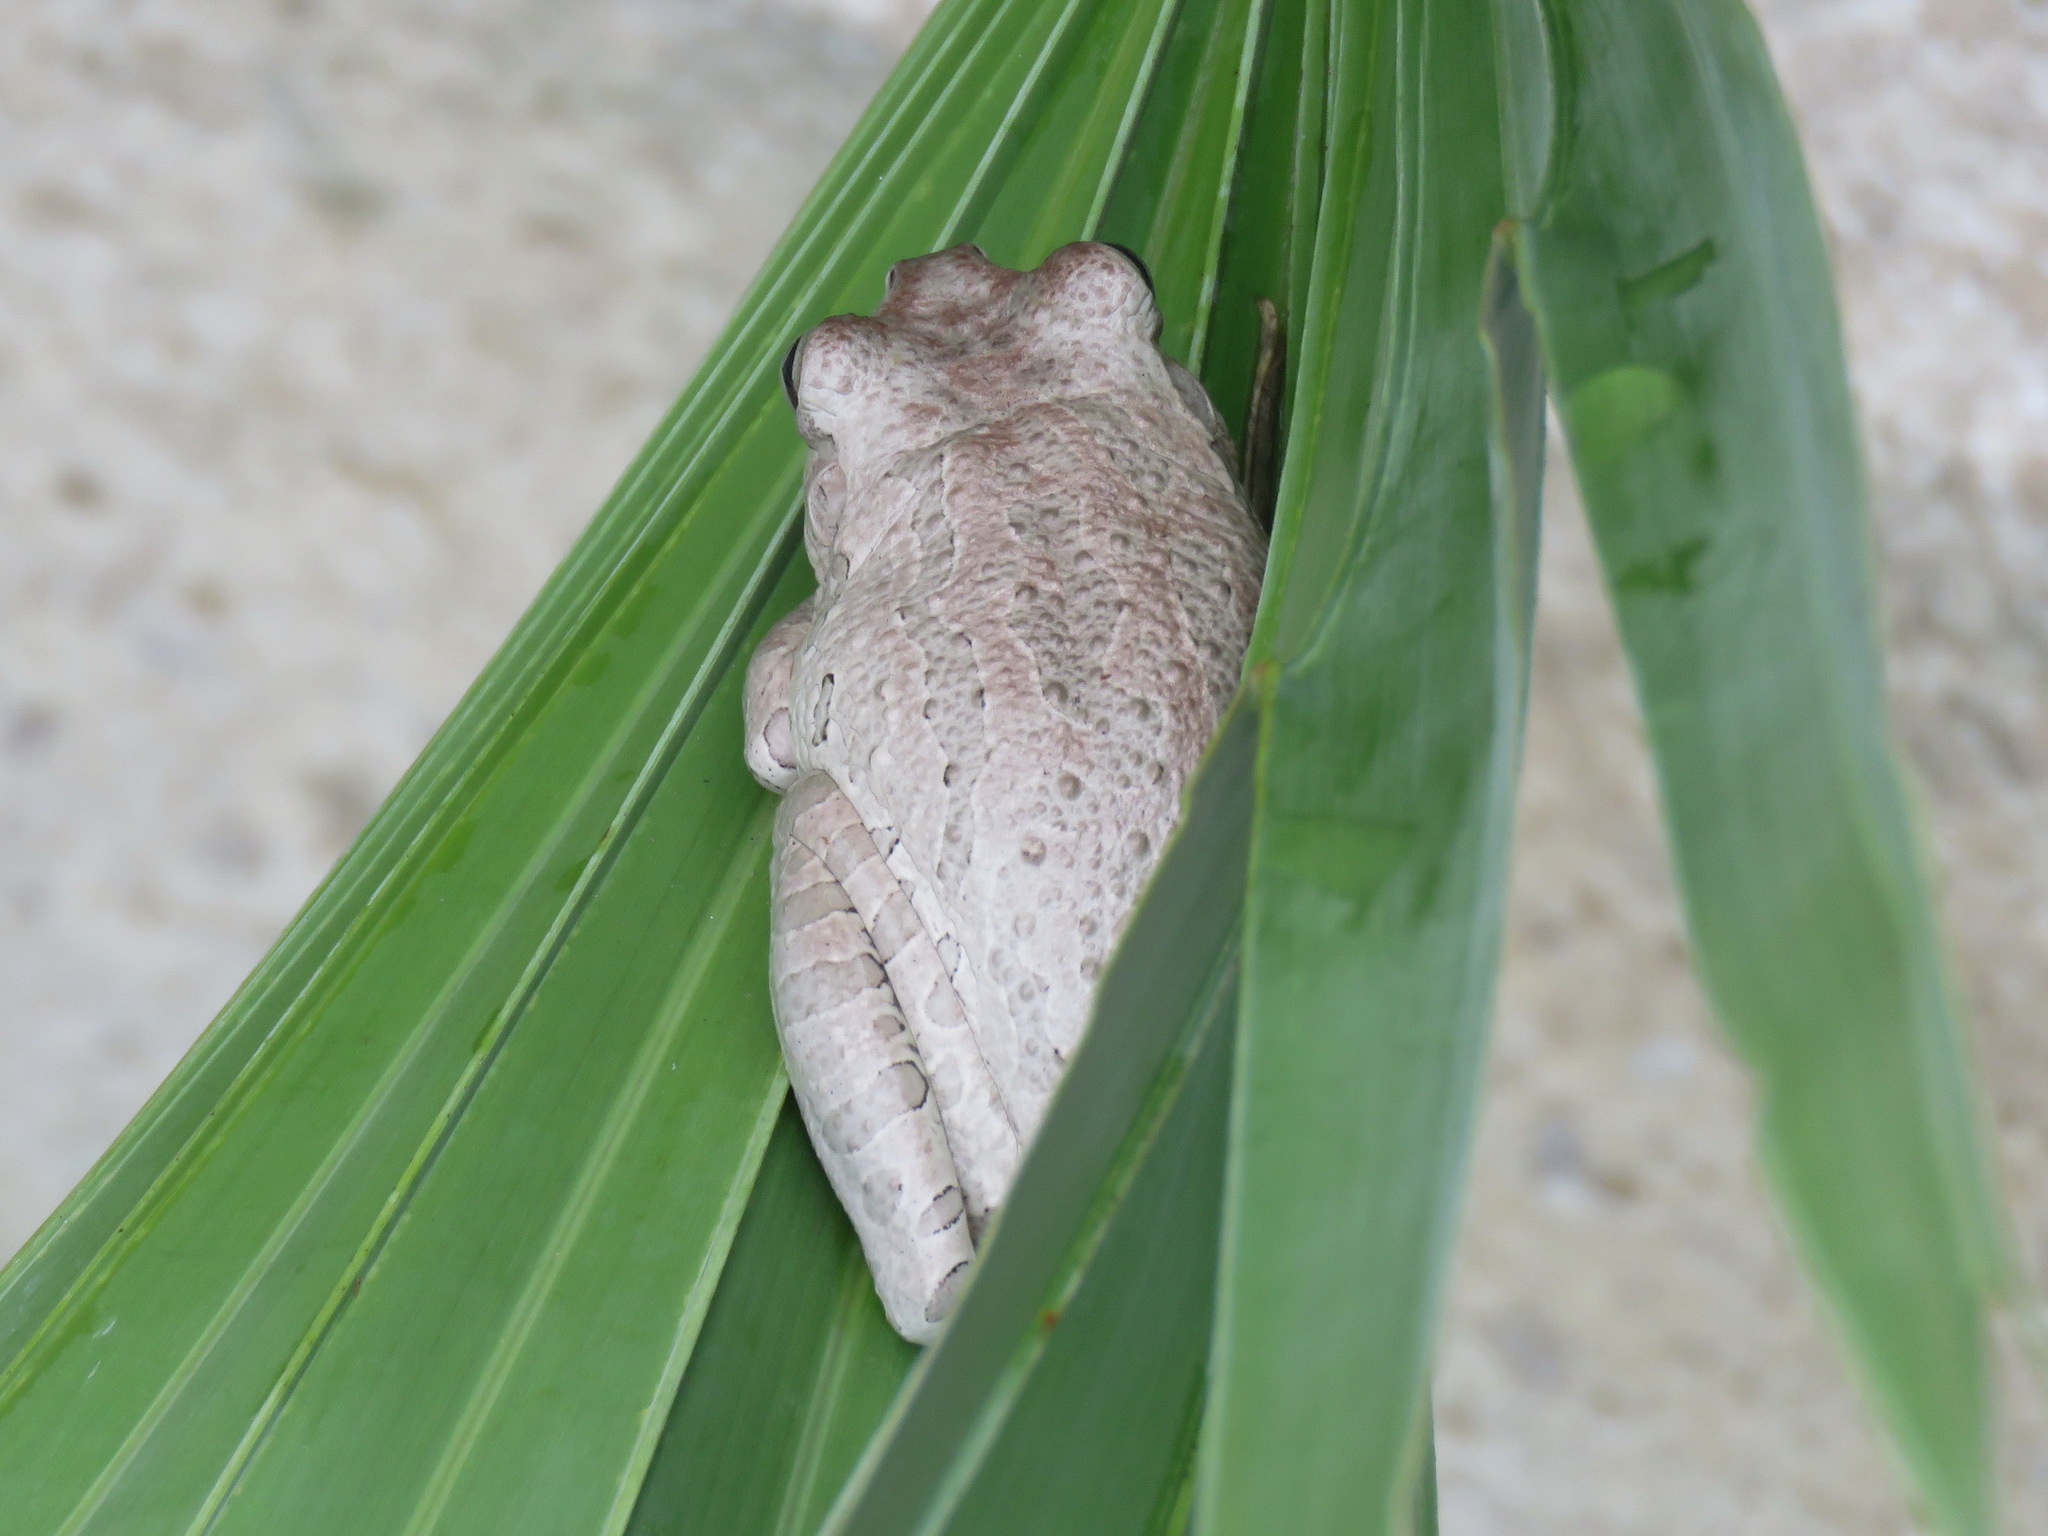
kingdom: Animalia
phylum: Chordata
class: Amphibia
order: Anura
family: Hylidae
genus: Osteopilus
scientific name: Osteopilus septentrionalis
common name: Cuban treefrog
